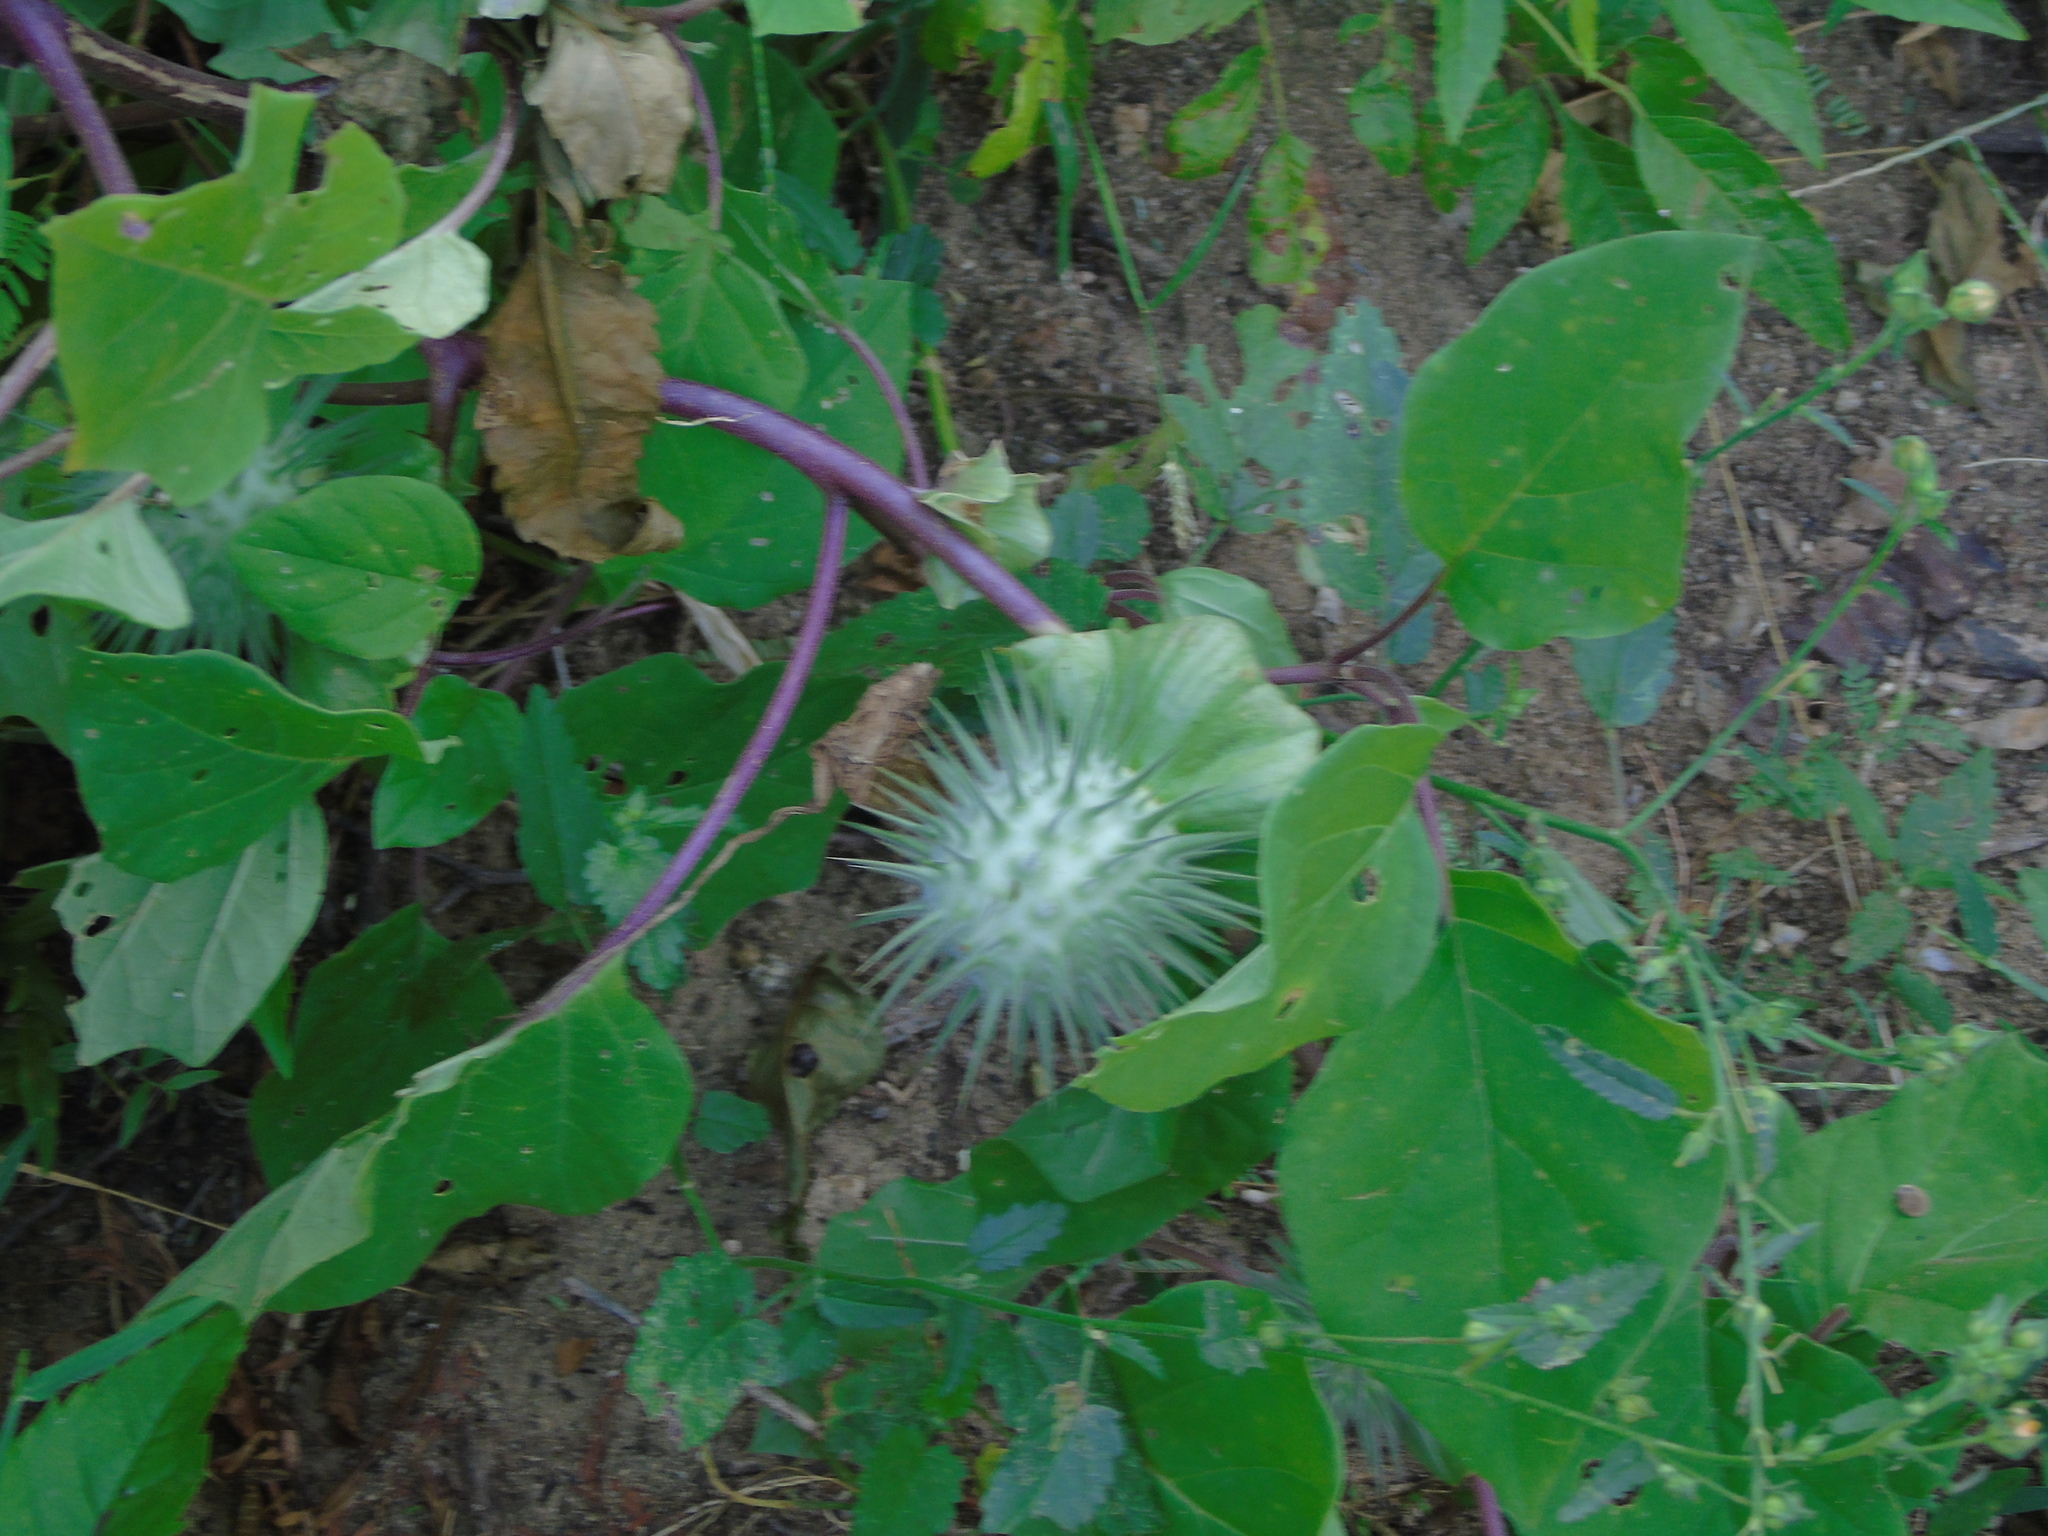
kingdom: Plantae
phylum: Tracheophyta
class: Magnoliopsida
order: Solanales
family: Solanaceae
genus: Datura
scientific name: Datura discolor
